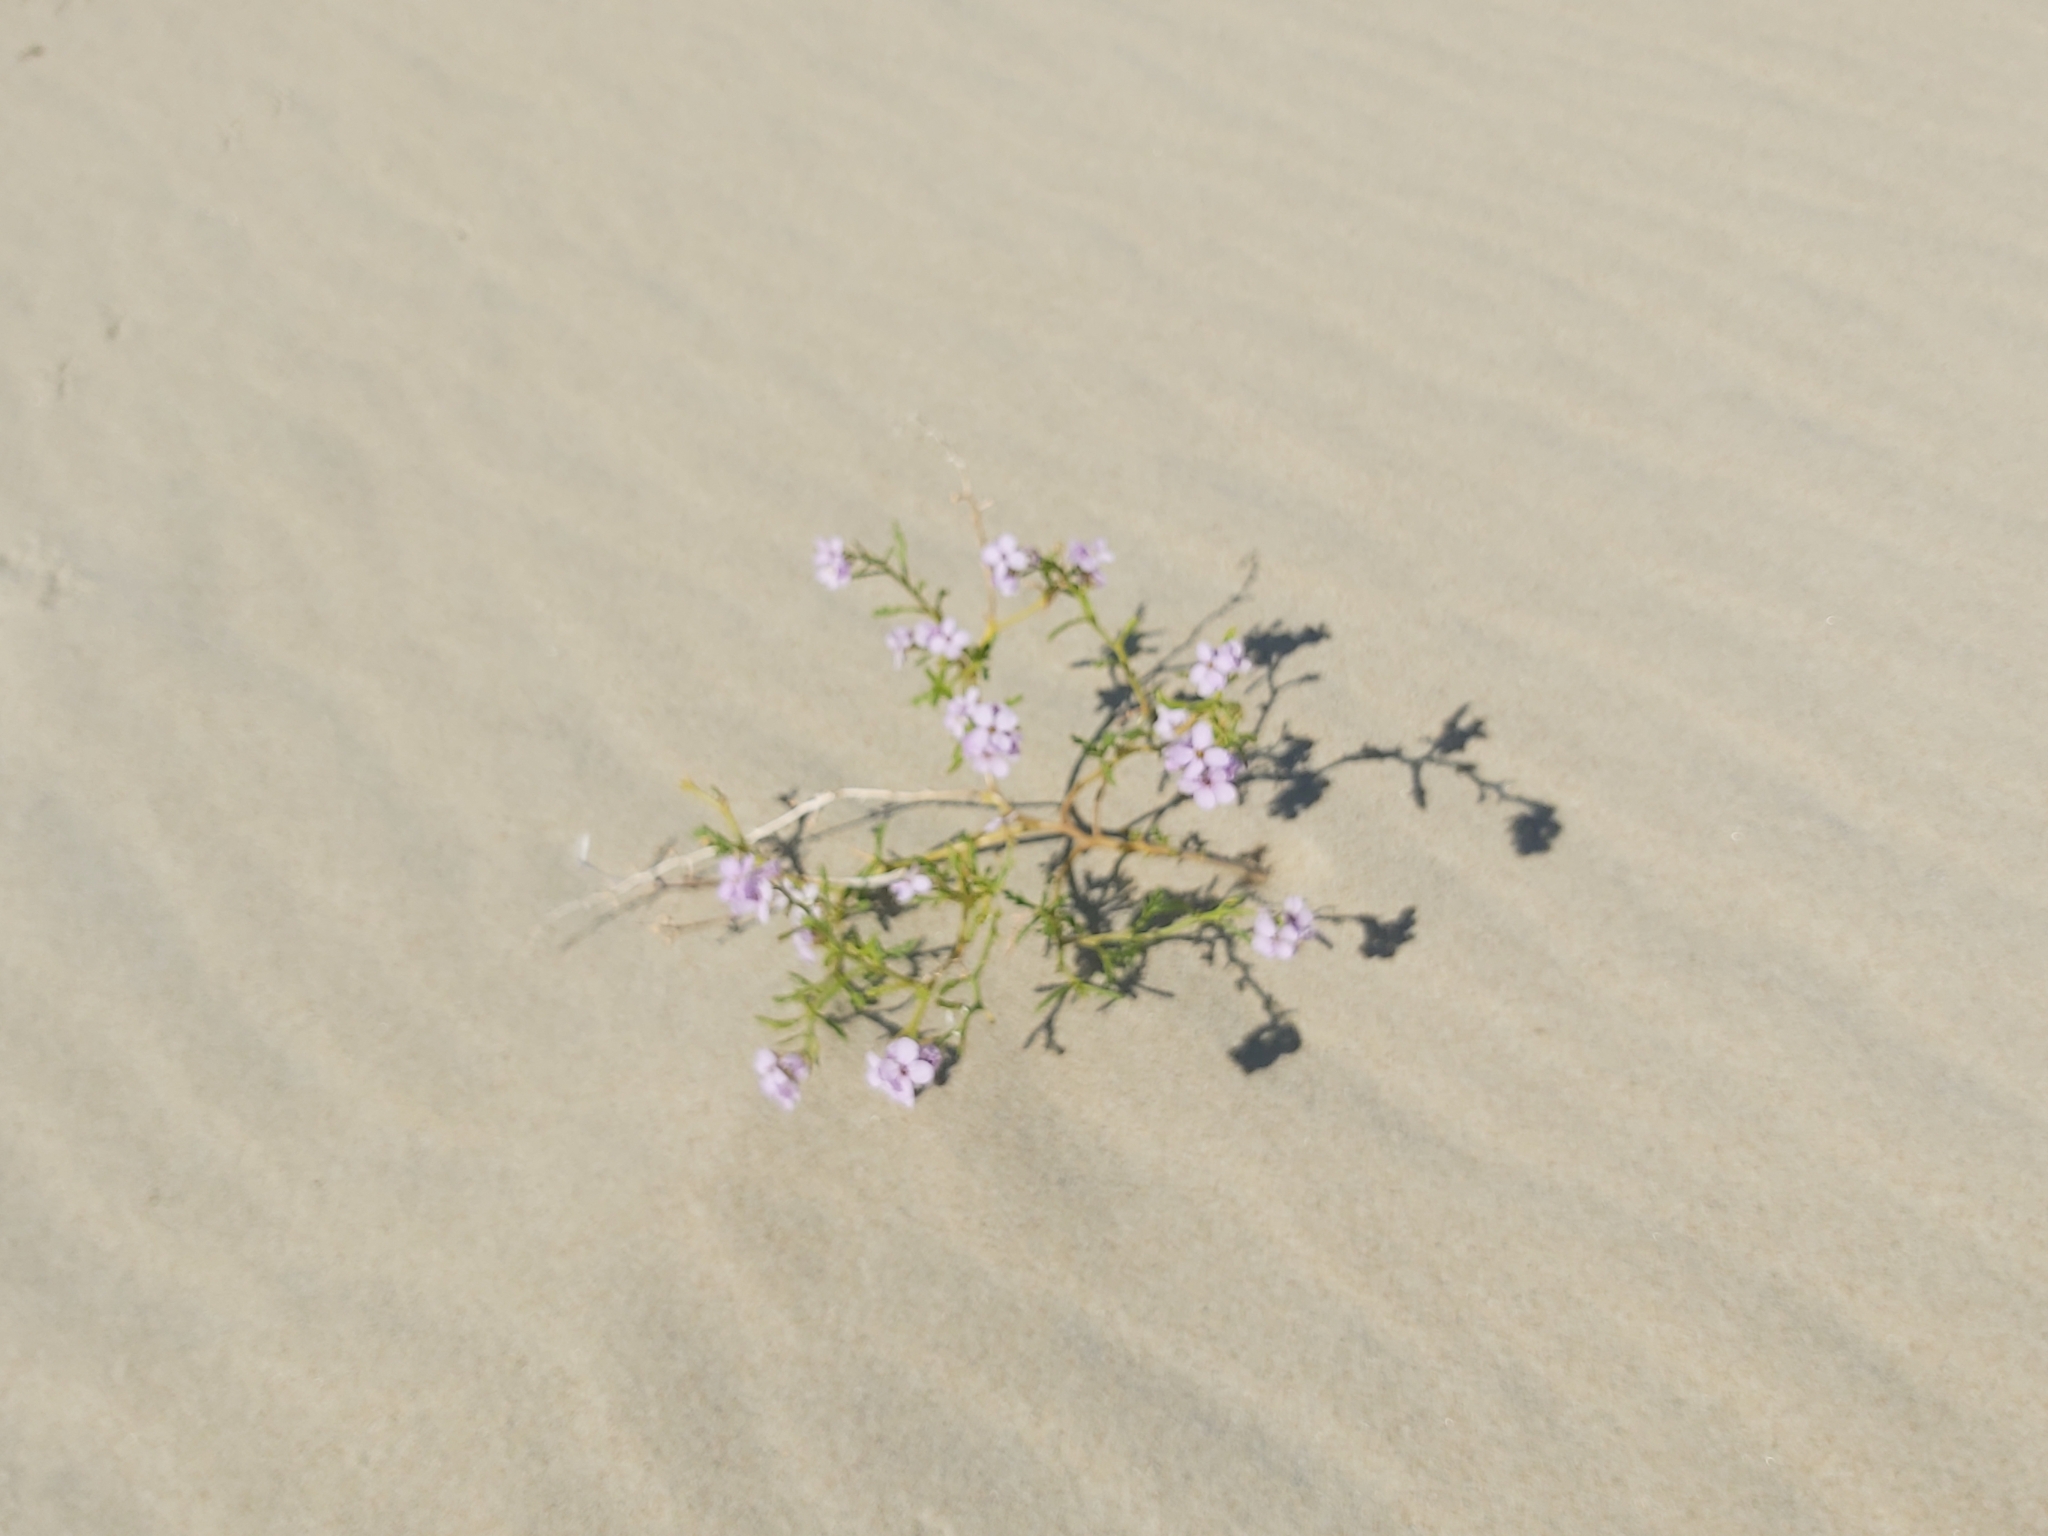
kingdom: Plantae
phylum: Tracheophyta
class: Magnoliopsida
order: Brassicales
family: Brassicaceae
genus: Cakile
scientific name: Cakile maritima
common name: Sea rocket
